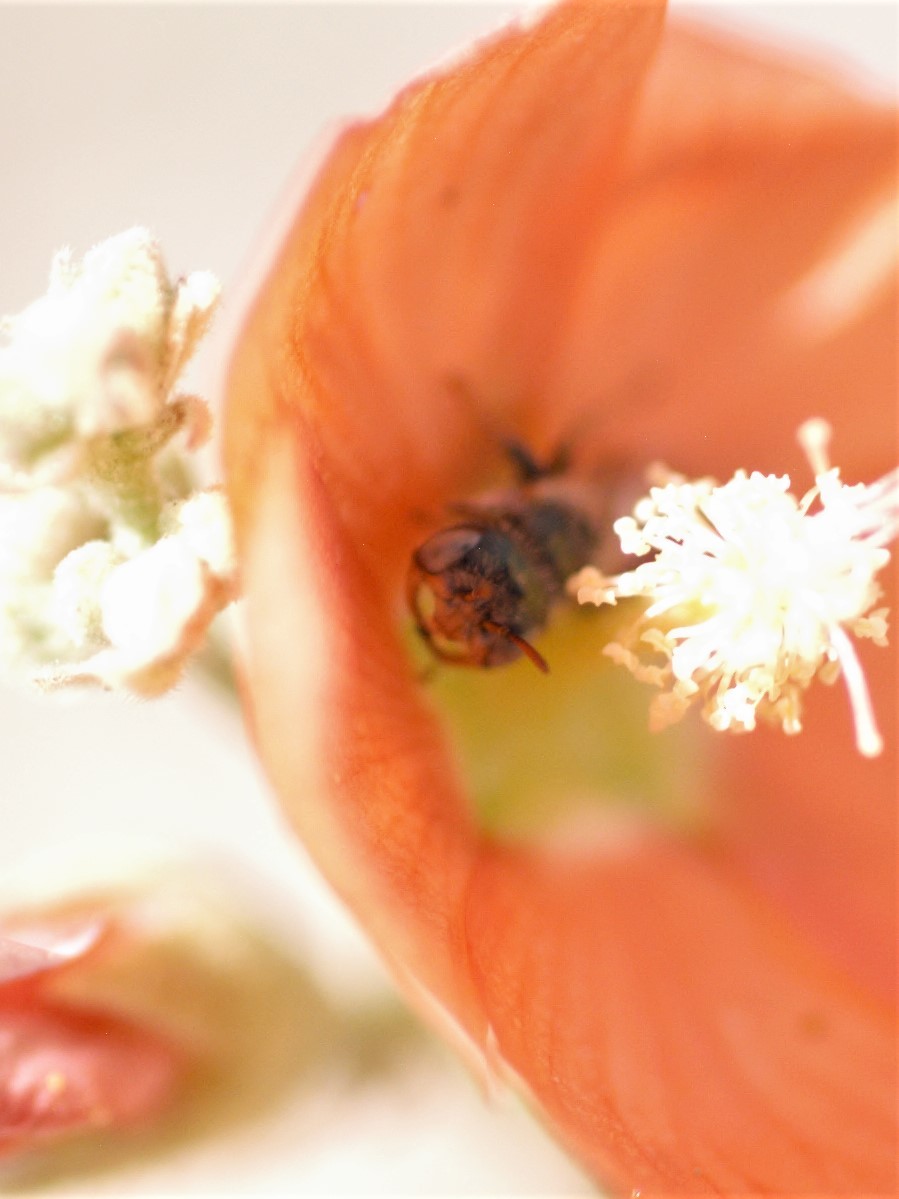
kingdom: Animalia
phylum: Arthropoda
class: Insecta
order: Hymenoptera
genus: Macroteropsis
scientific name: Macroteropsis
